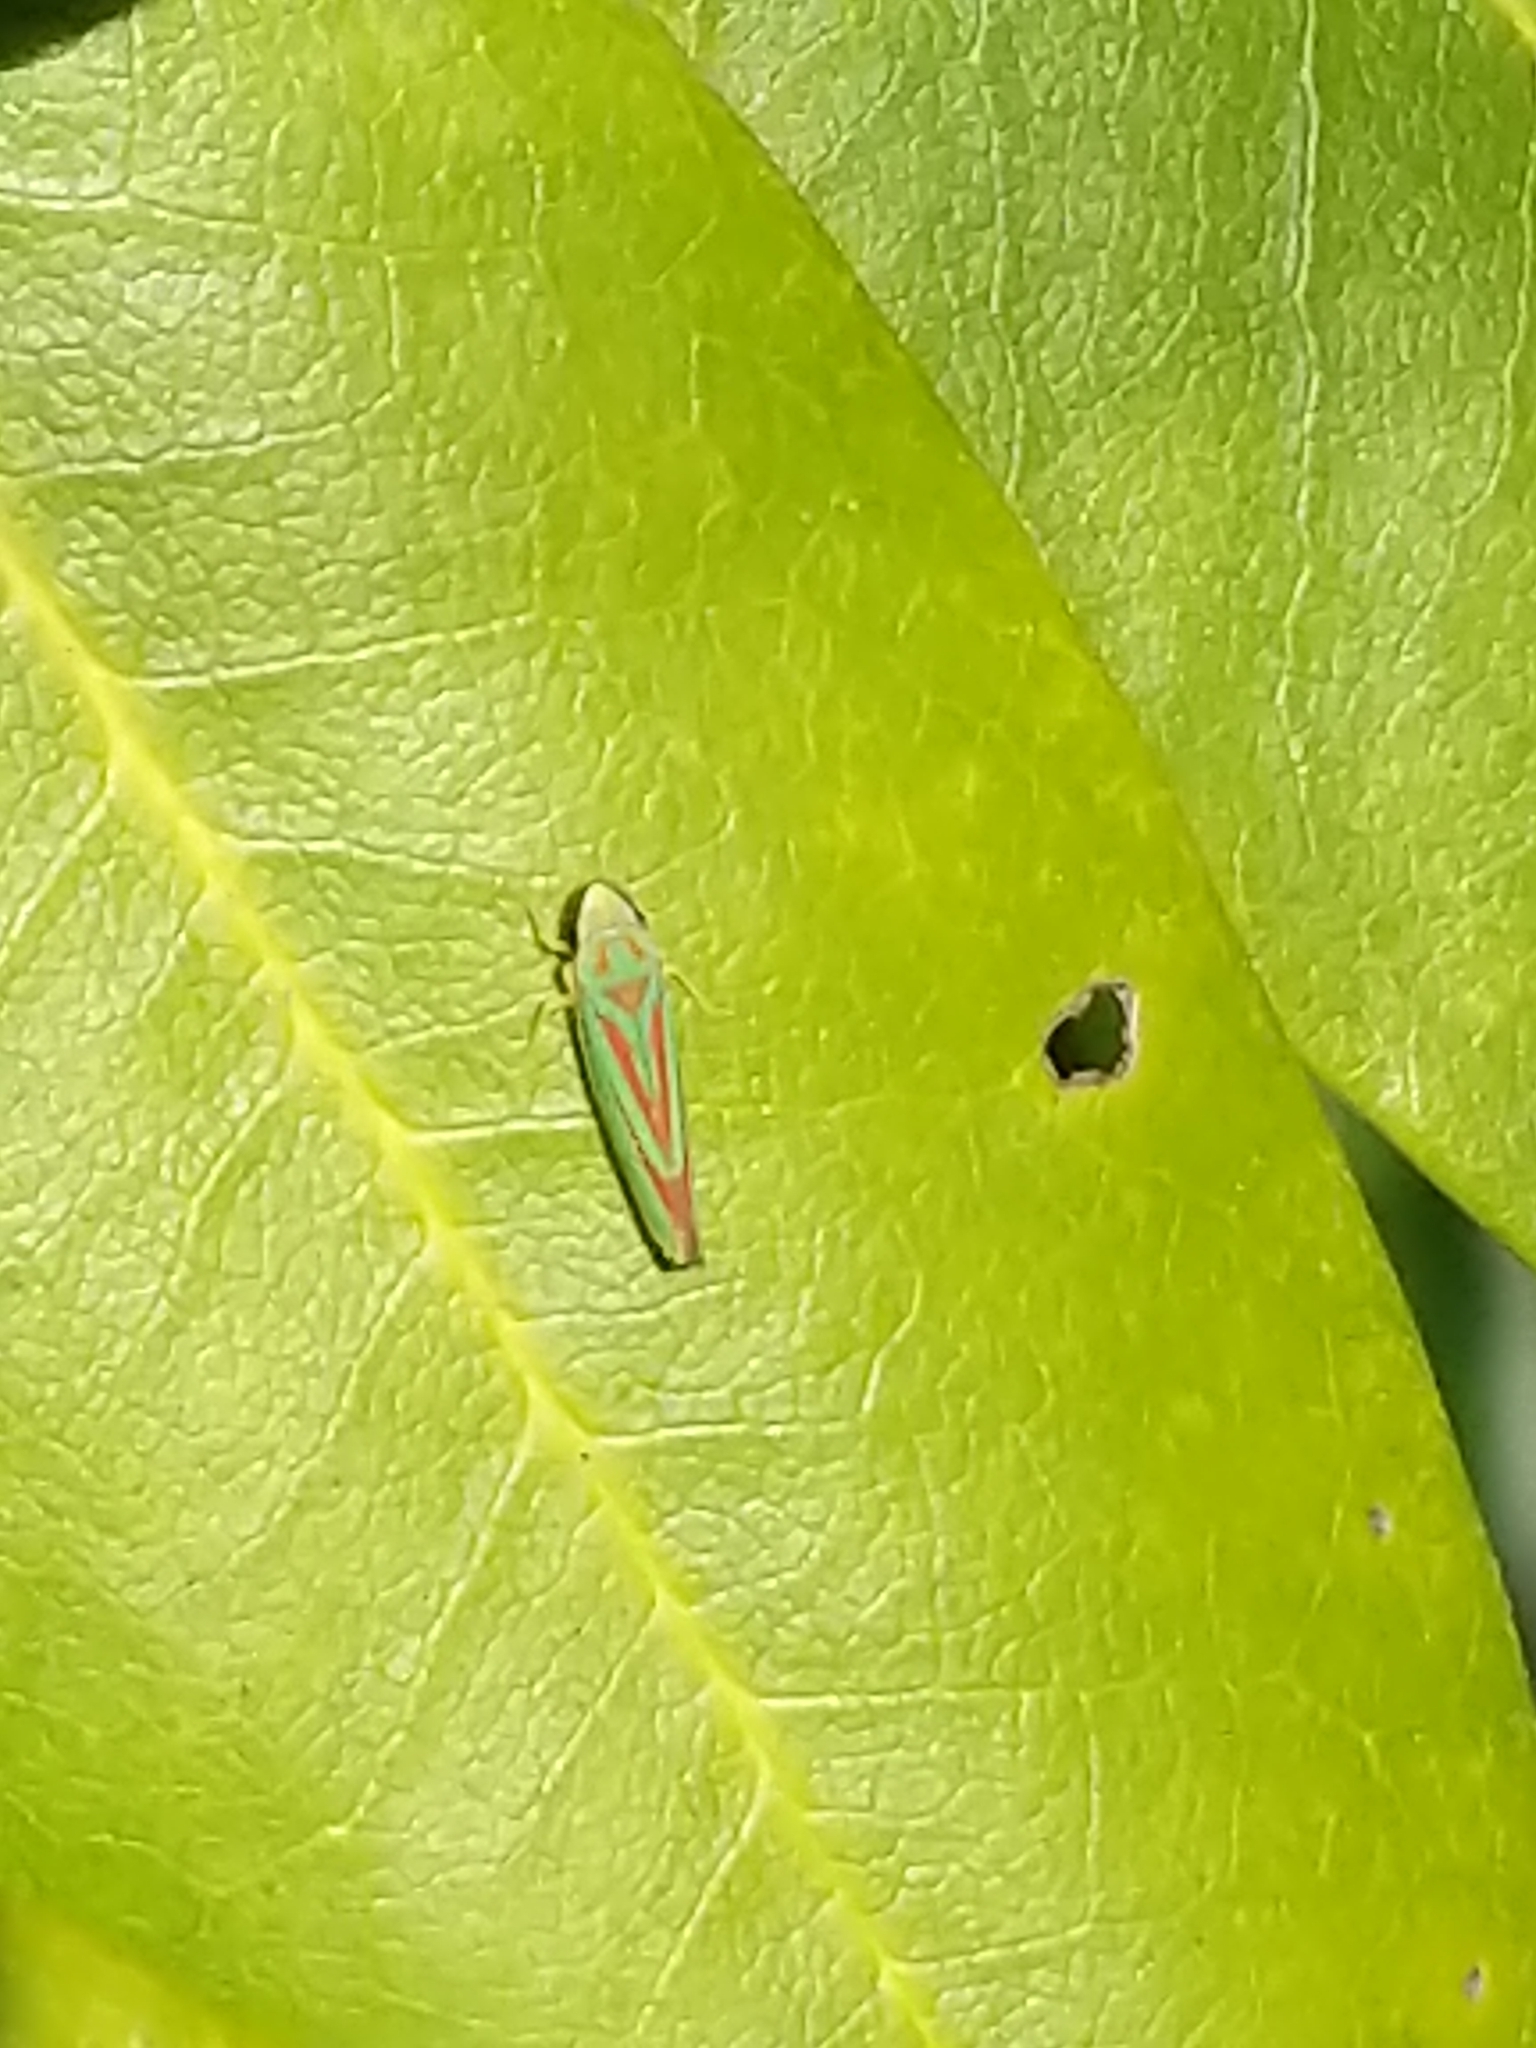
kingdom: Animalia
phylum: Arthropoda
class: Insecta
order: Hemiptera
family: Cicadellidae
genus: Graphocephala
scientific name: Graphocephala fennahi
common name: Rhododendron leafhopper
